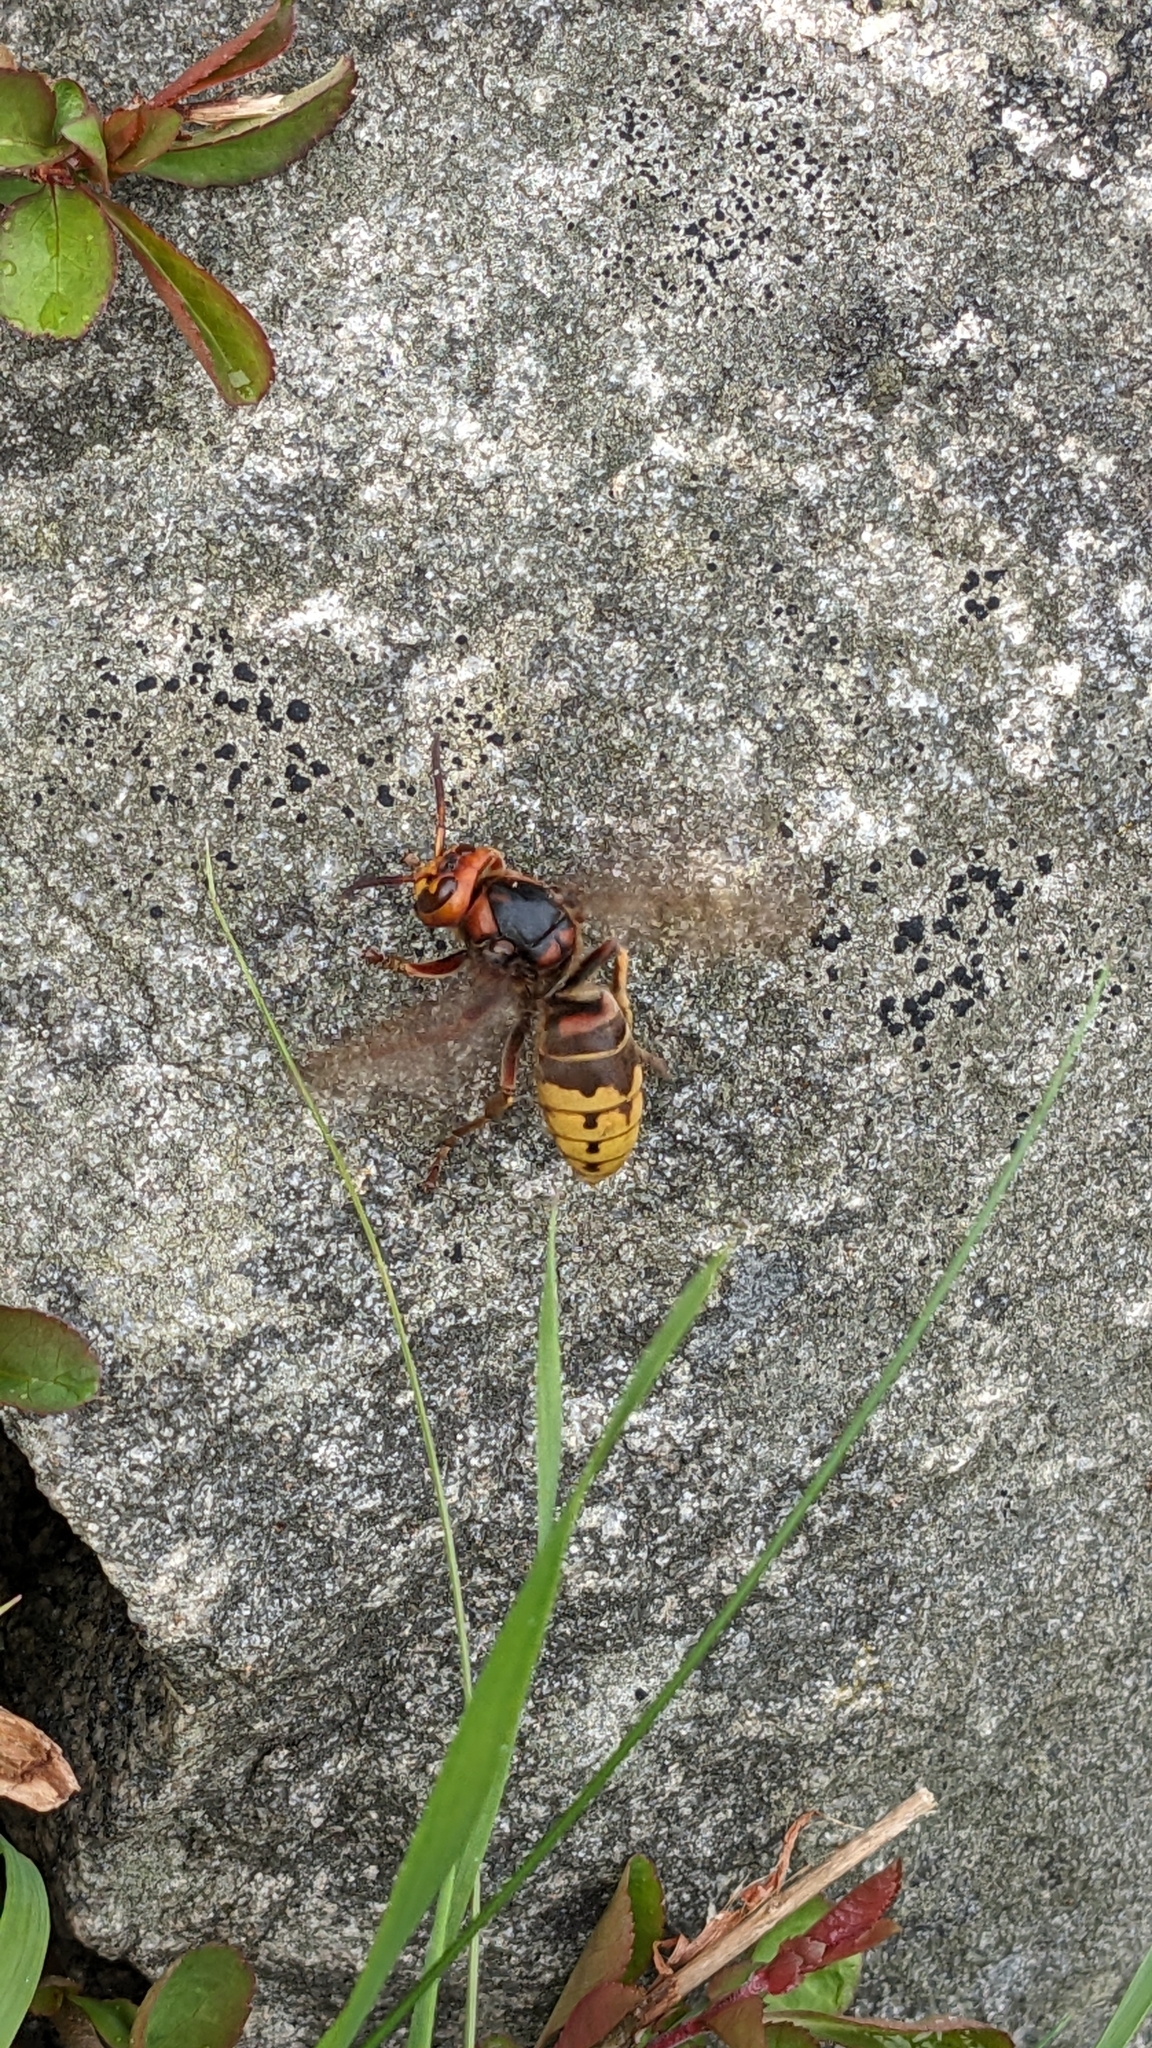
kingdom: Animalia
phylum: Arthropoda
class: Insecta
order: Hymenoptera
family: Vespidae
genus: Vespa
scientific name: Vespa crabro
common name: Hornet
